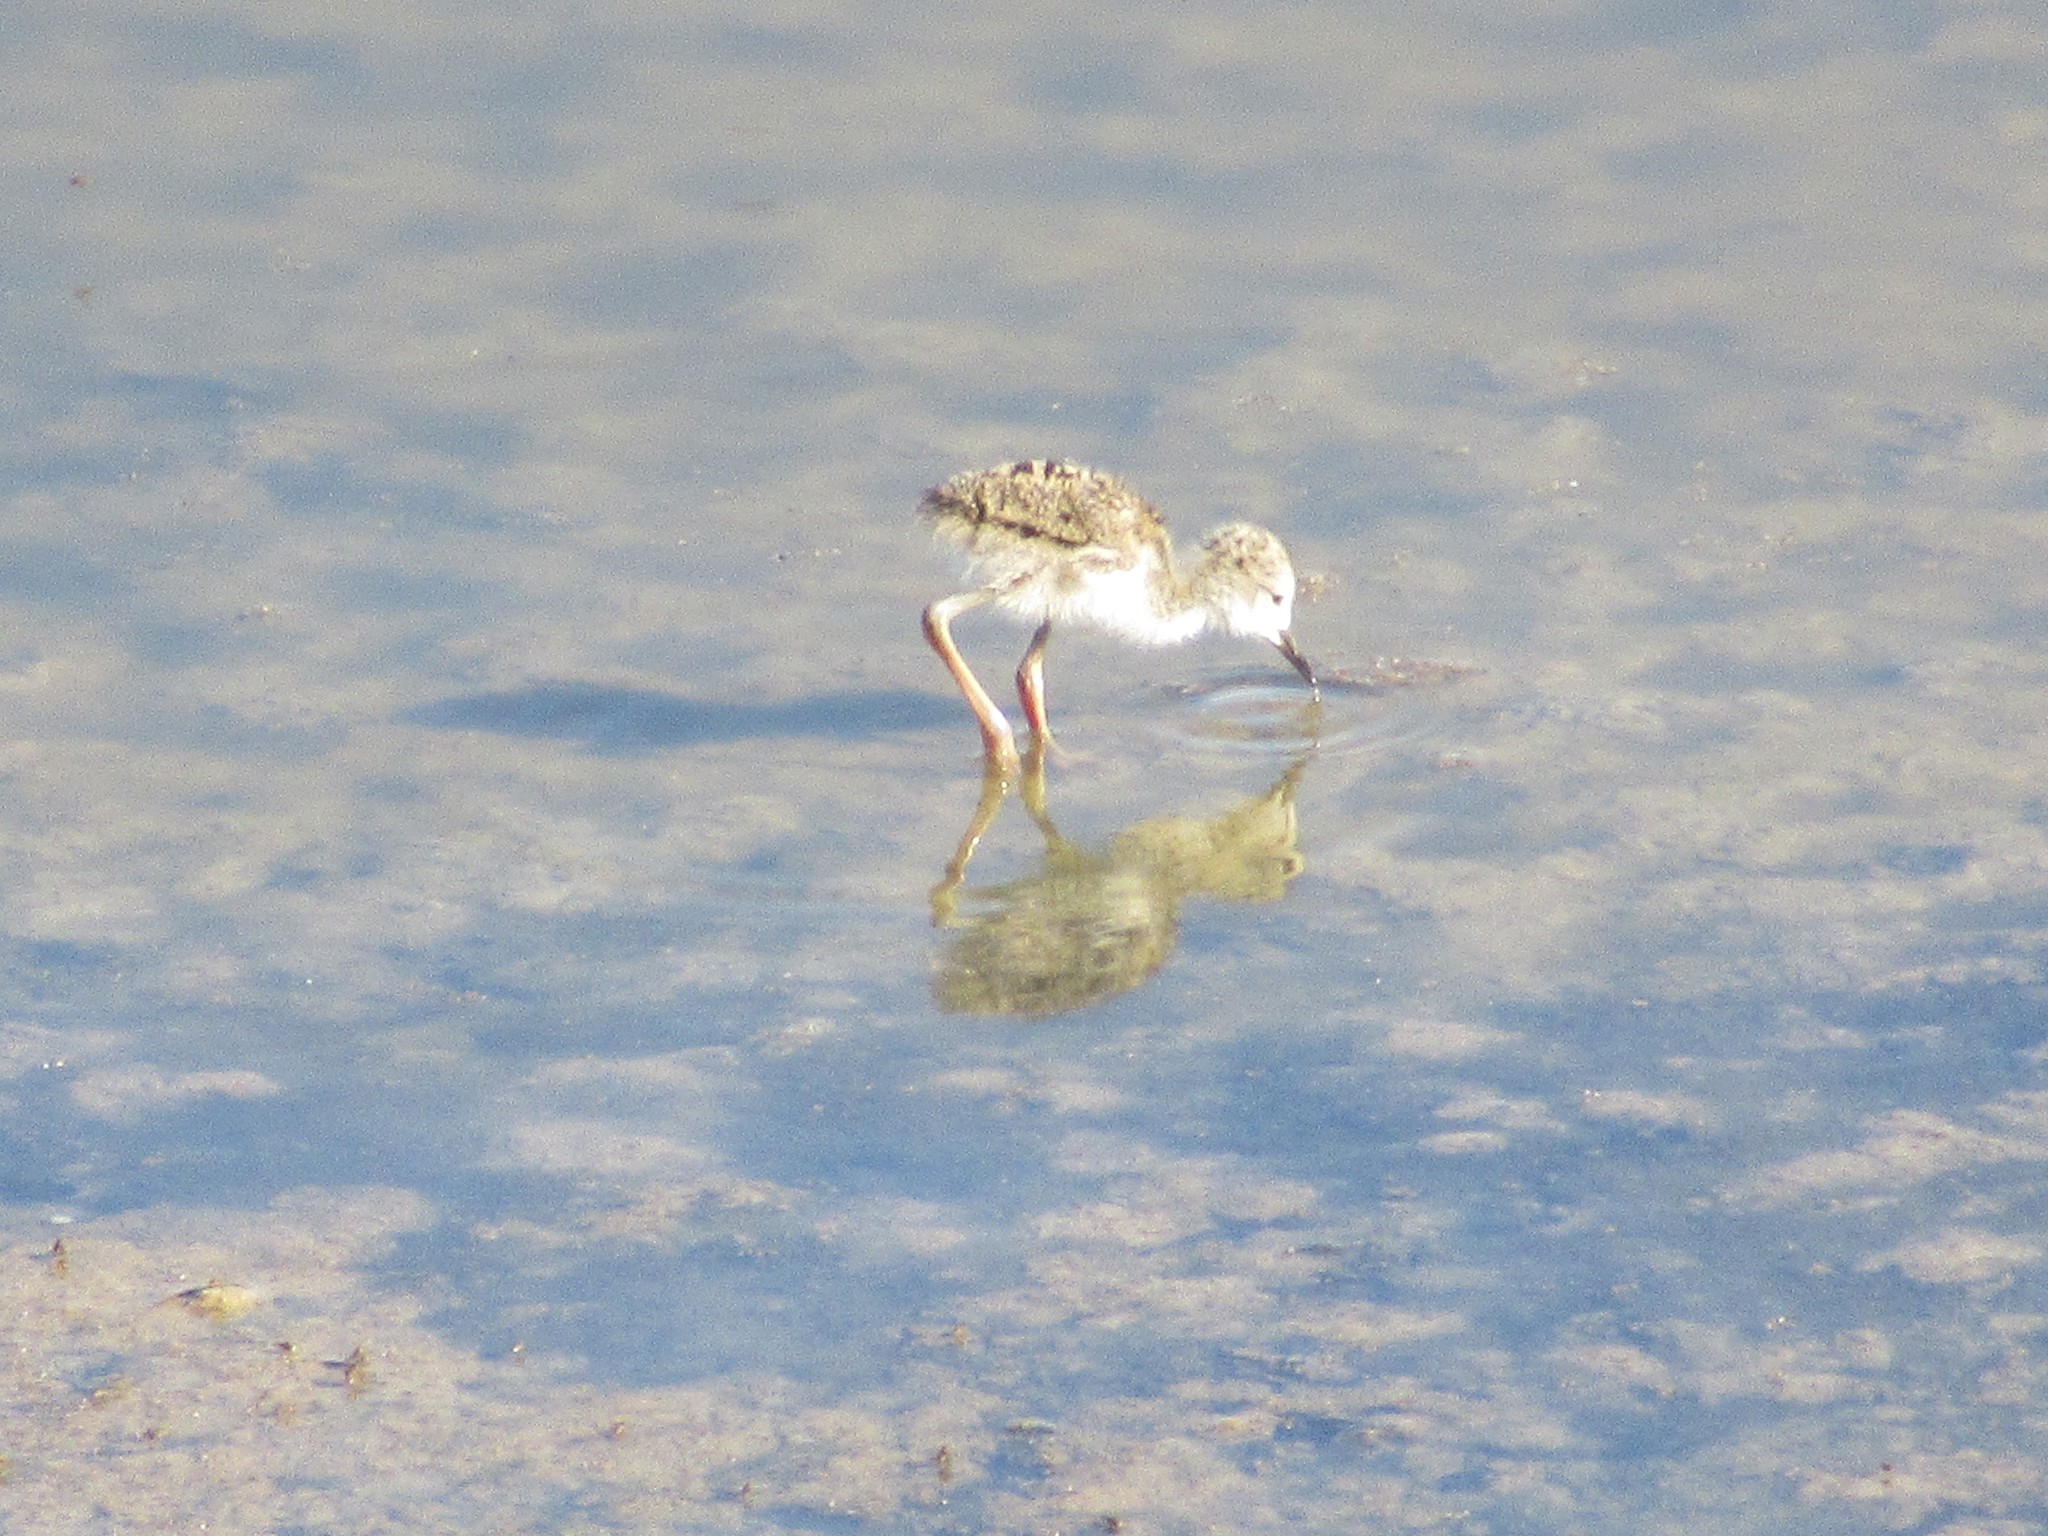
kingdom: Animalia
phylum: Chordata
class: Aves
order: Charadriiformes
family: Recurvirostridae
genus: Himantopus
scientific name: Himantopus mexicanus
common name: Black-necked stilt
